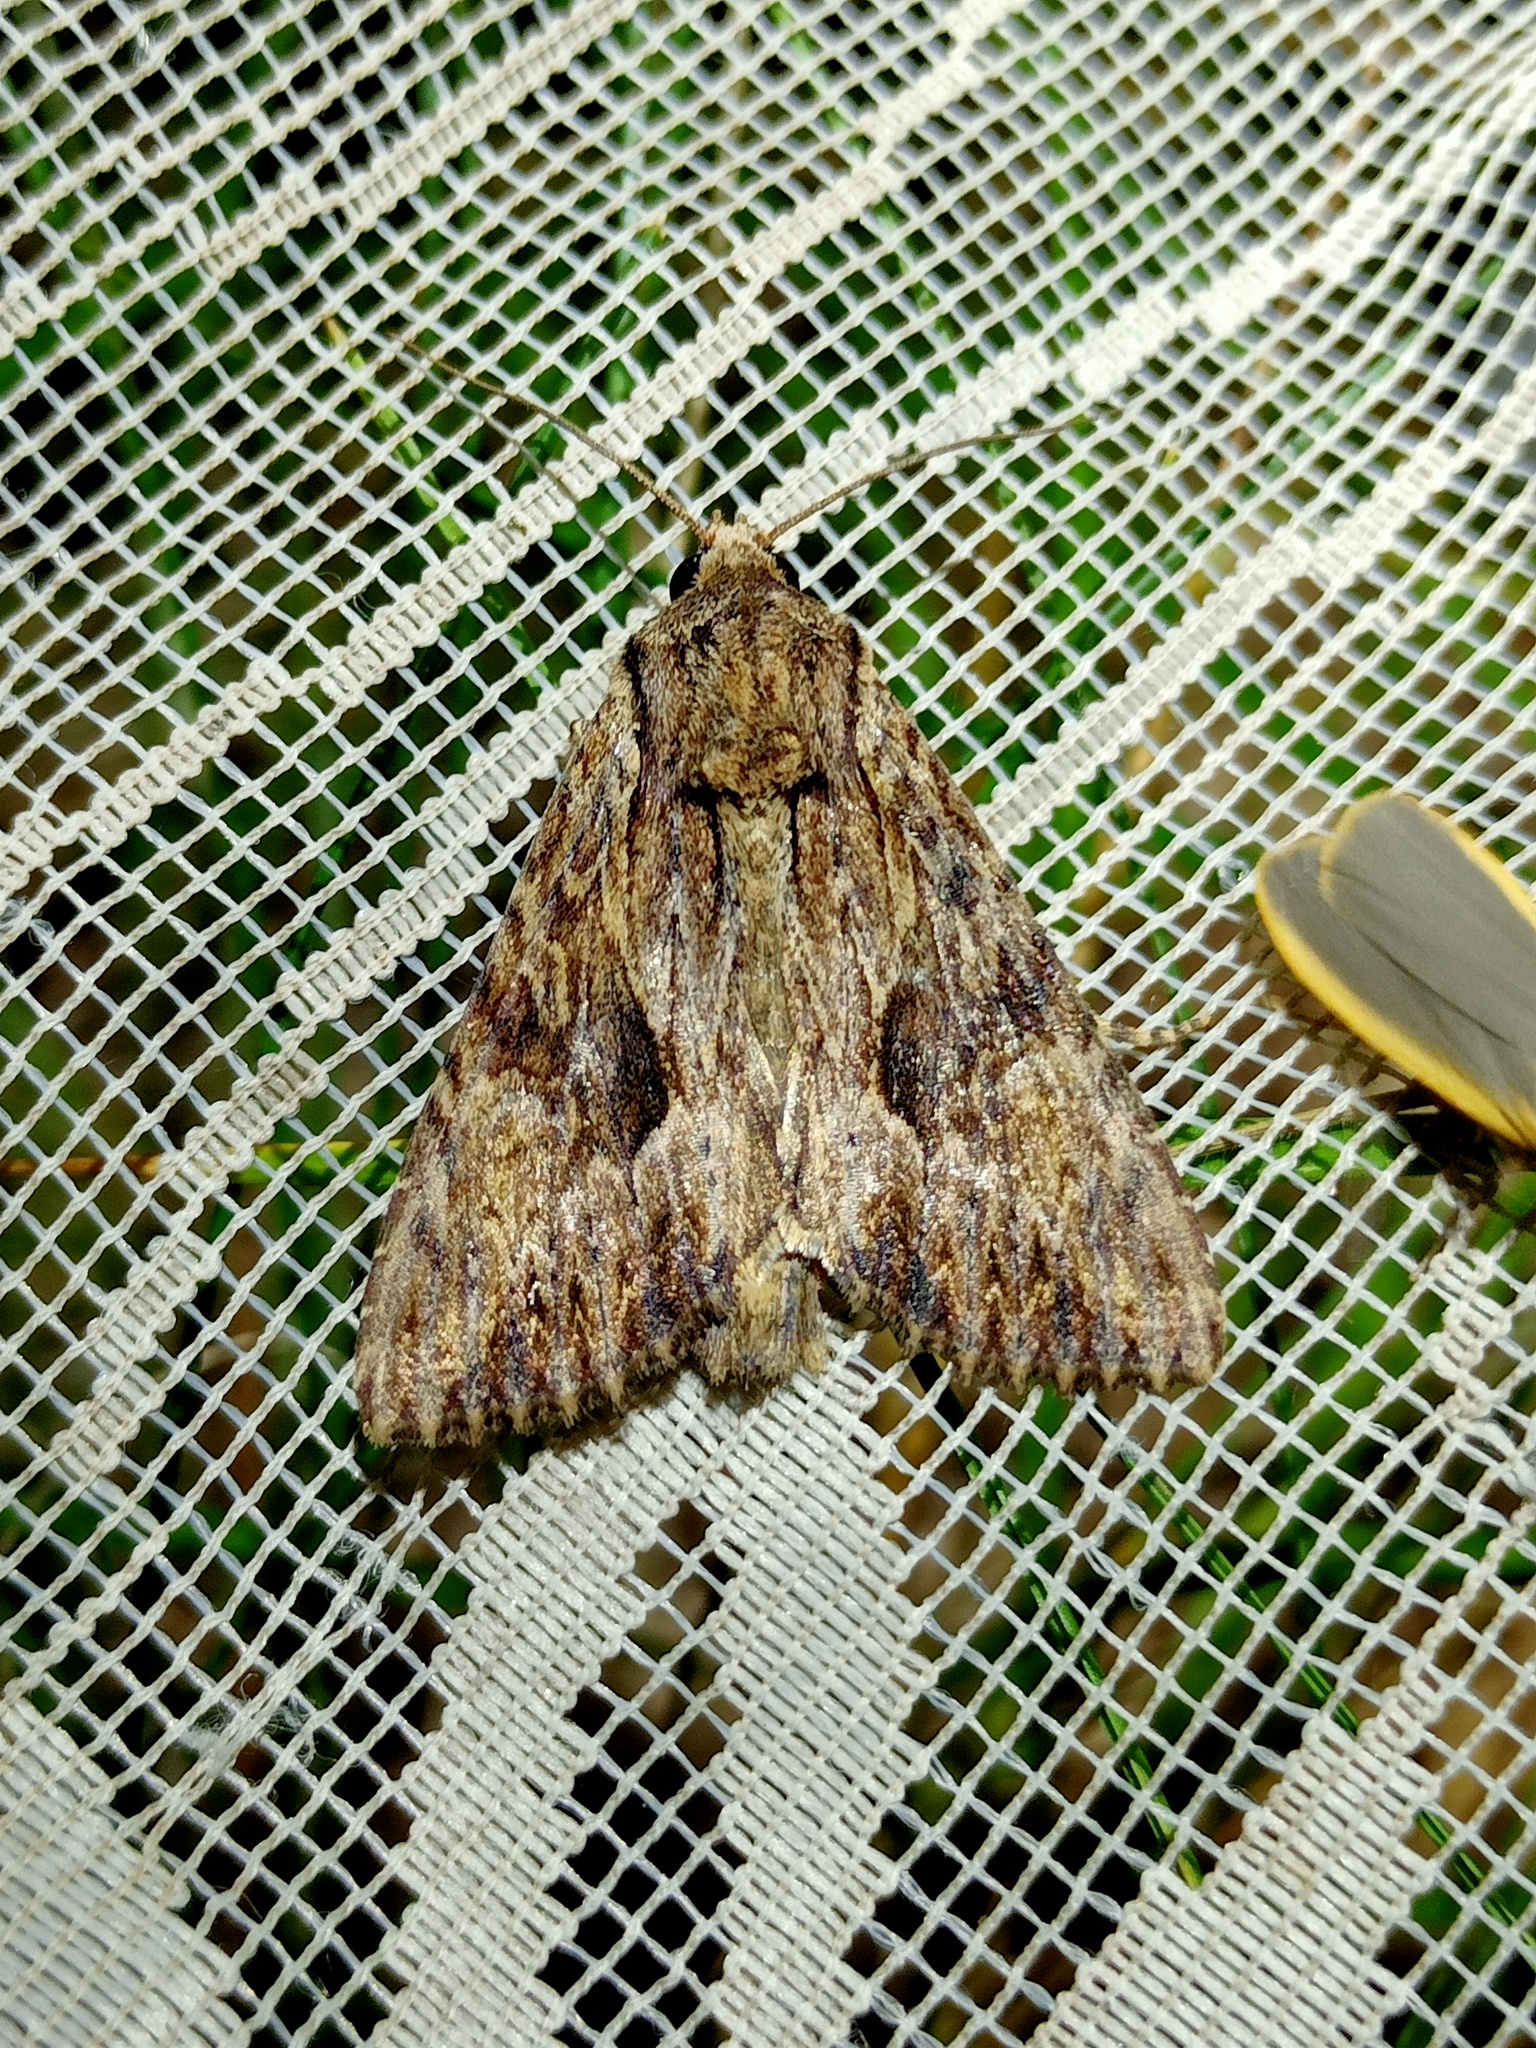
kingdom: Animalia
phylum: Arthropoda
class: Insecta
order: Lepidoptera
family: Noctuidae
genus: Apamea
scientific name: Apamea syriaca
